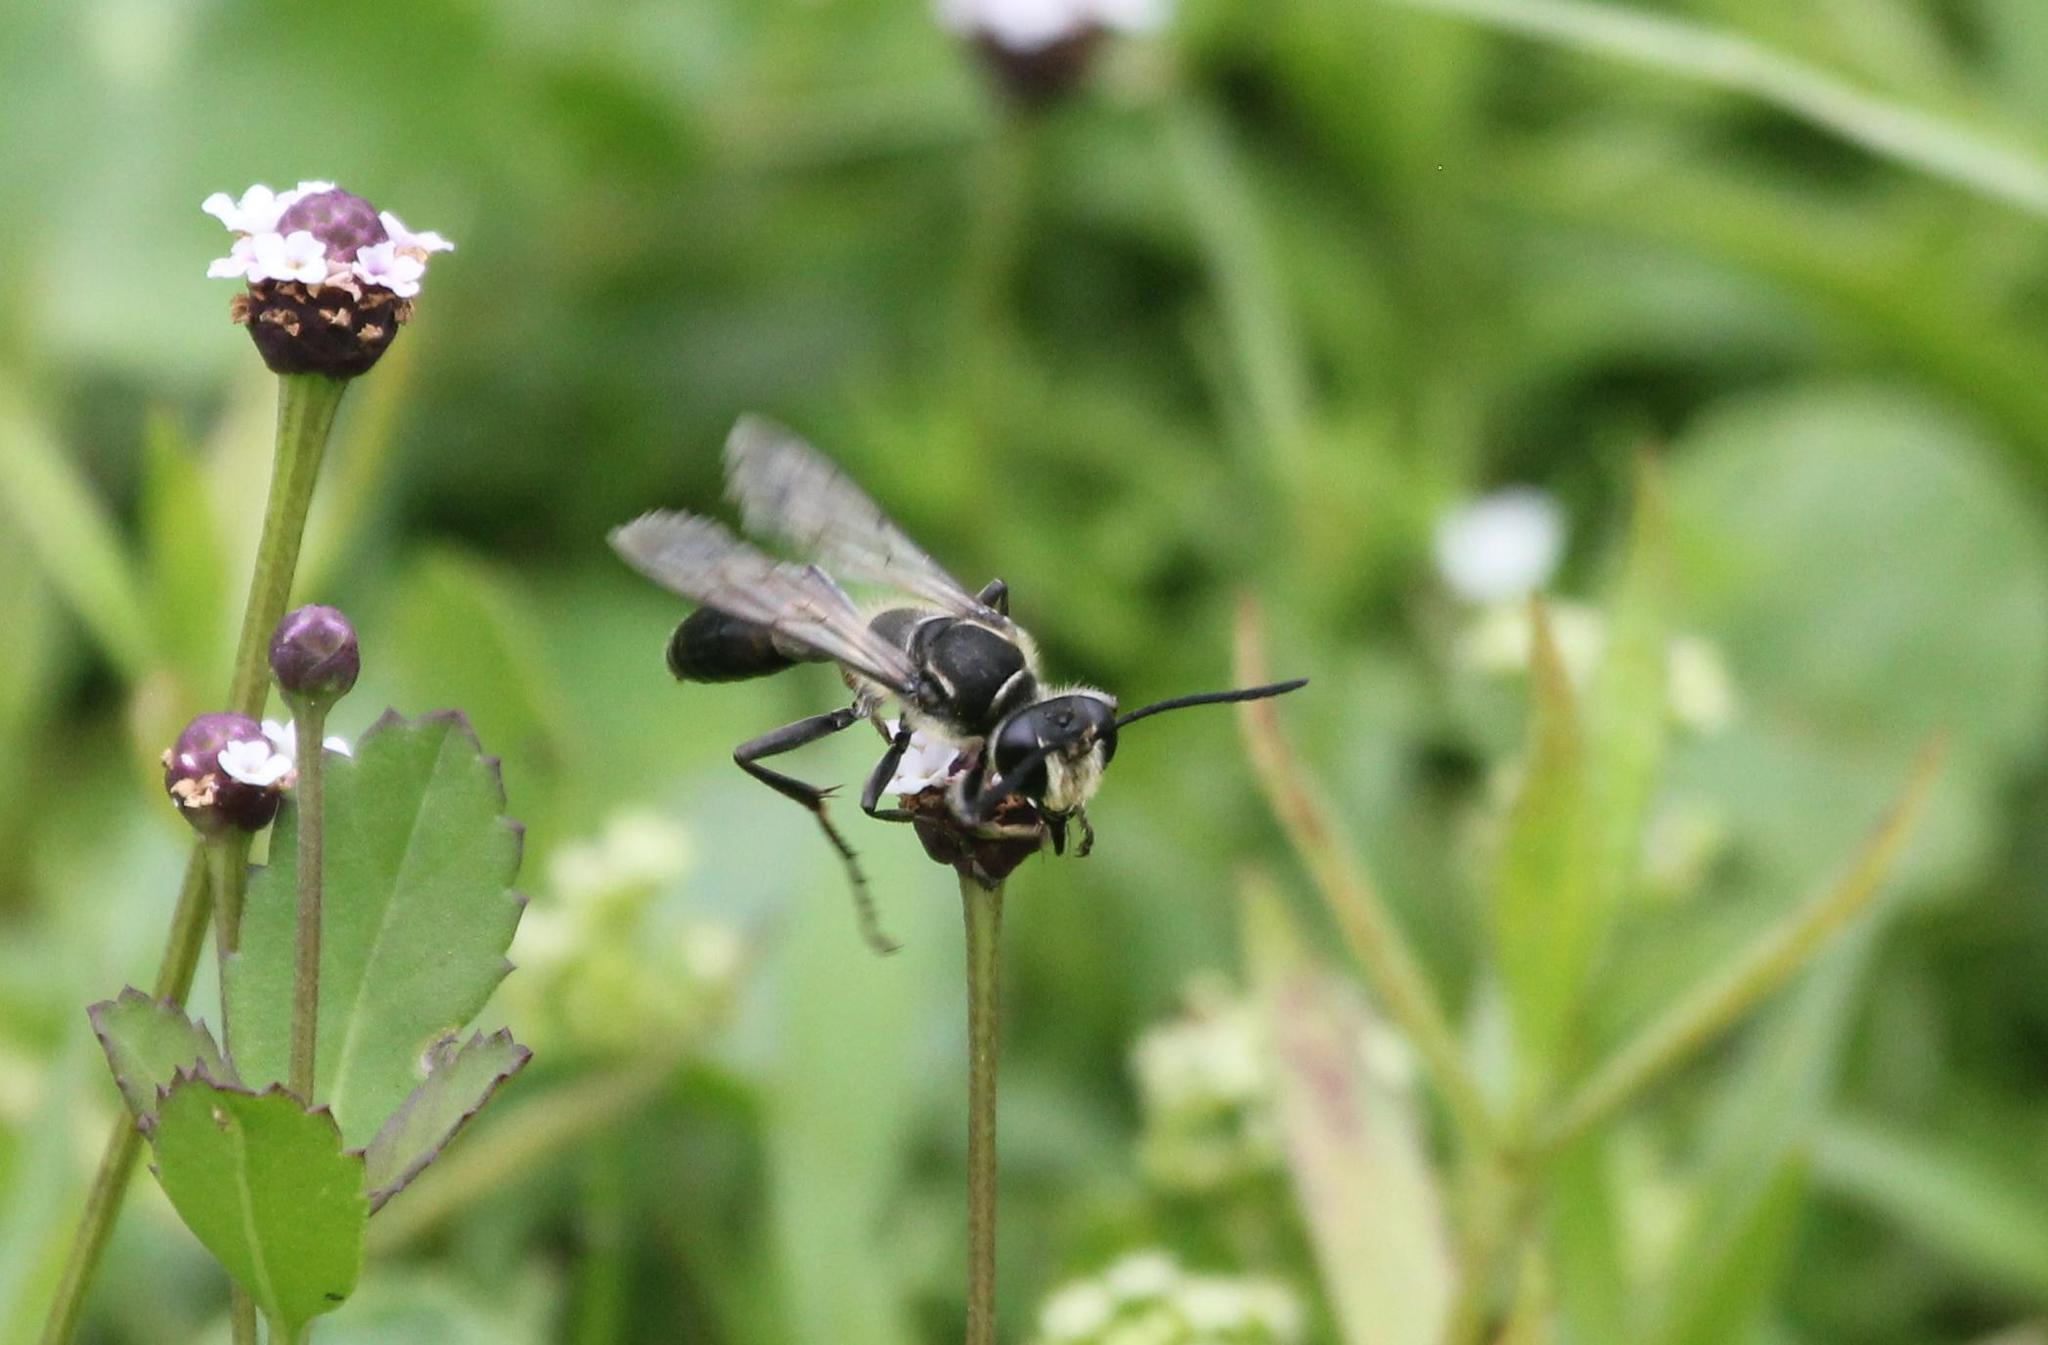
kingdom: Animalia
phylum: Arthropoda
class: Insecta
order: Hymenoptera
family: Sphecidae
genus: Sphex
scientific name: Sphex dorsalis
